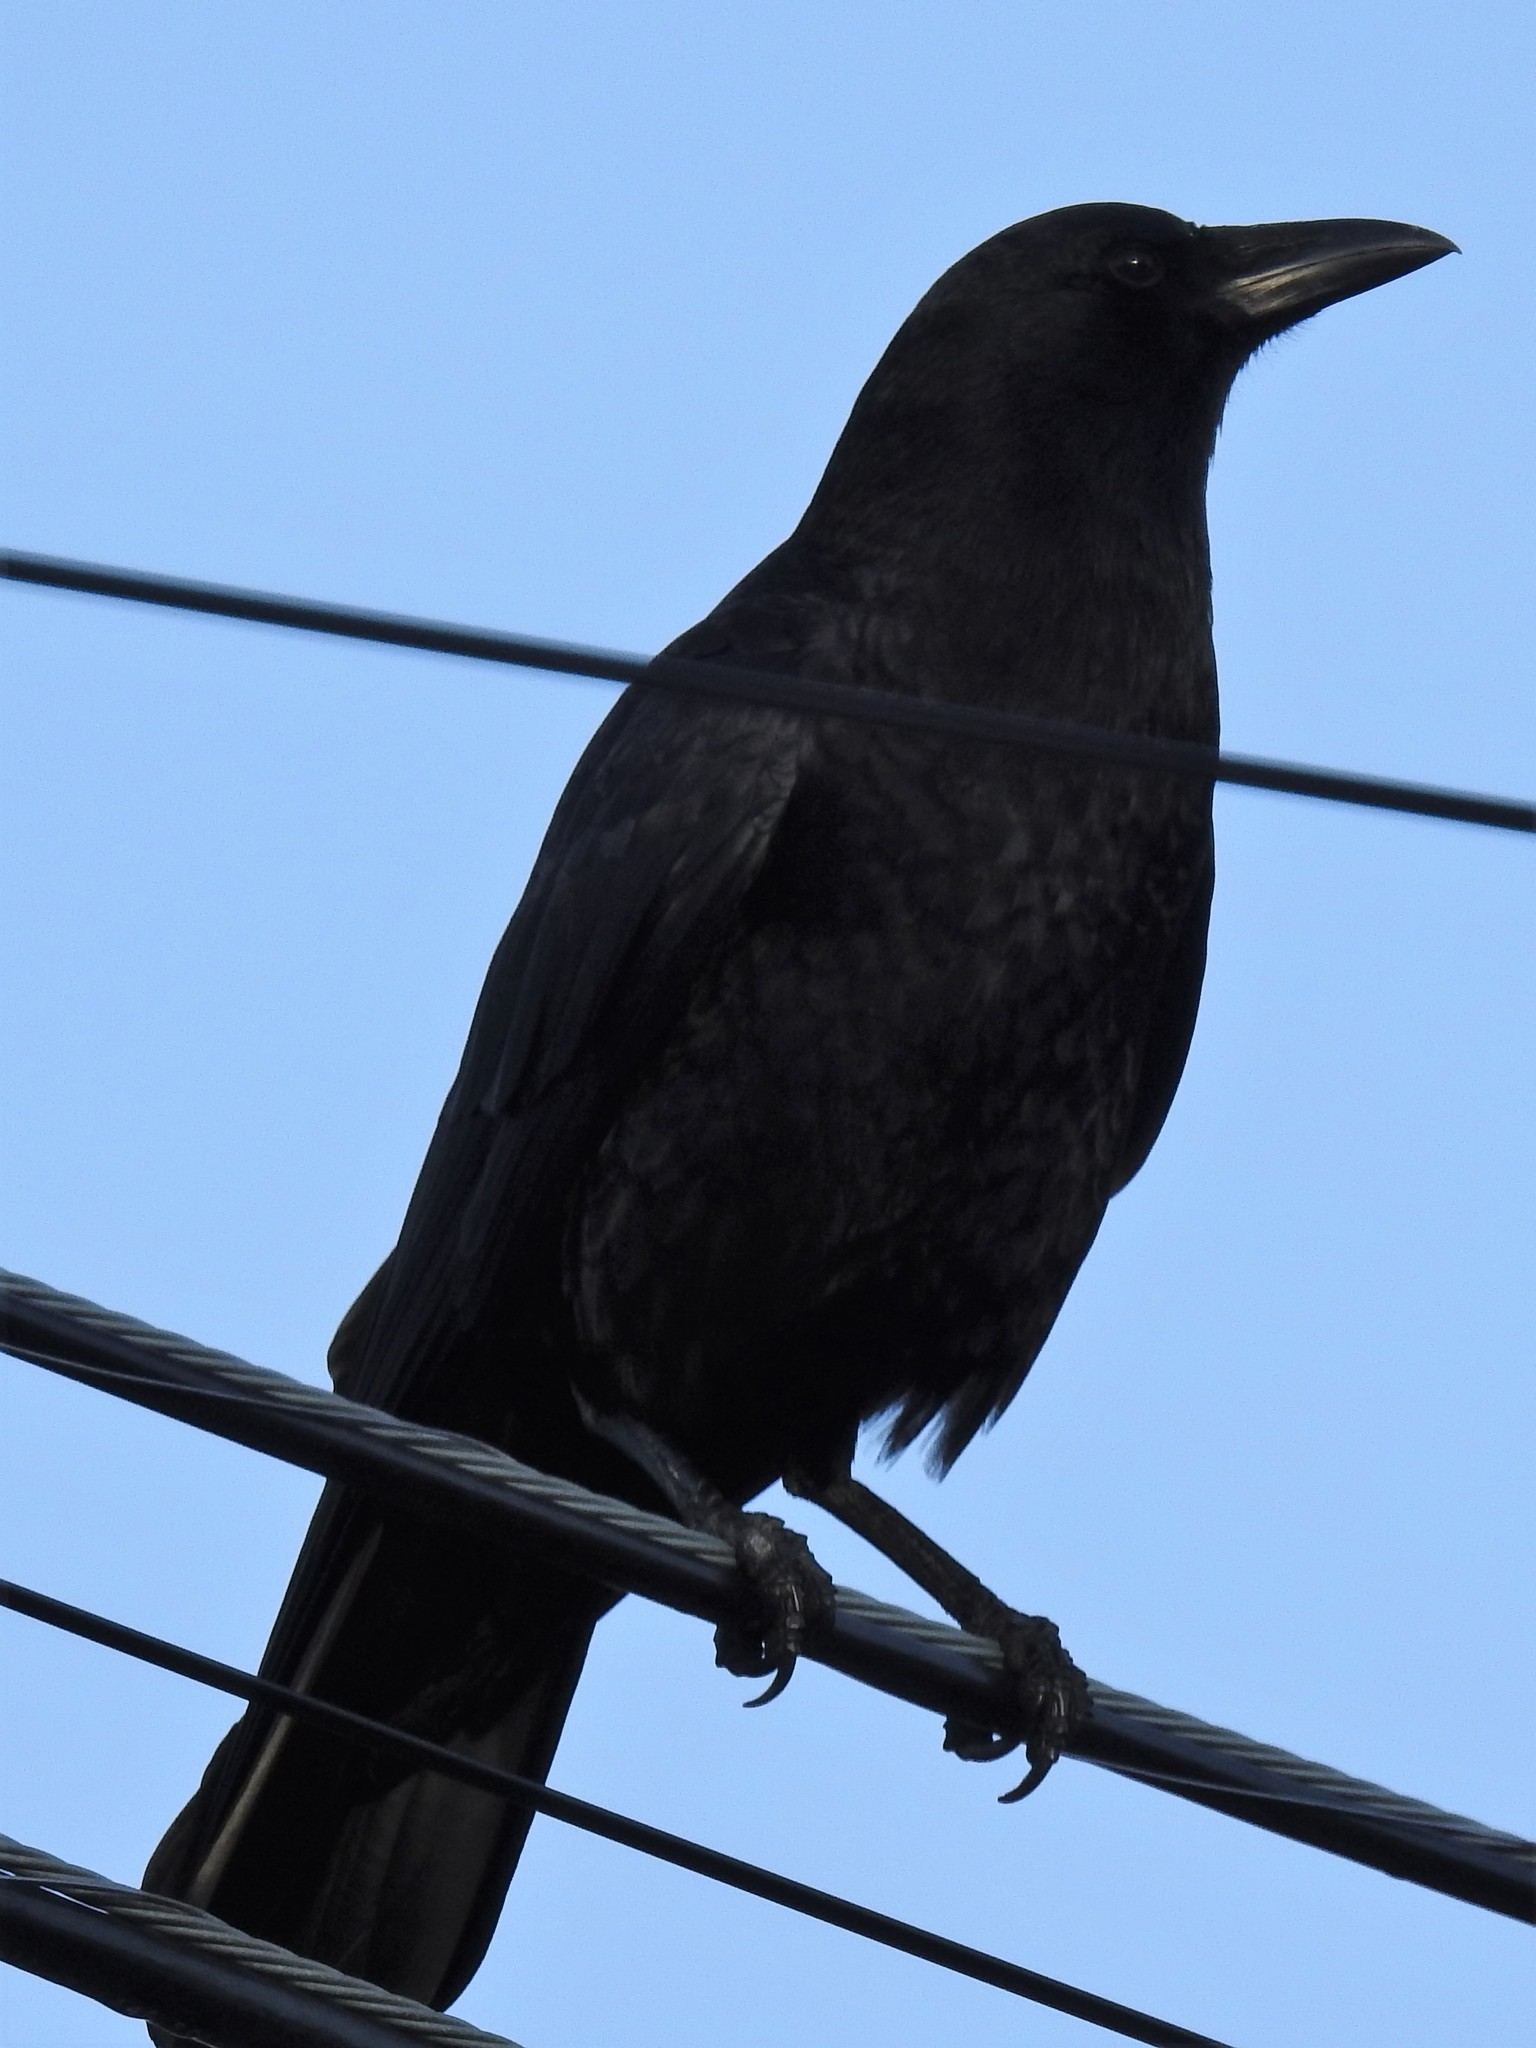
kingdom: Animalia
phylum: Chordata
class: Aves
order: Passeriformes
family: Corvidae
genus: Corvus
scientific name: Corvus brachyrhynchos
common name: American crow
